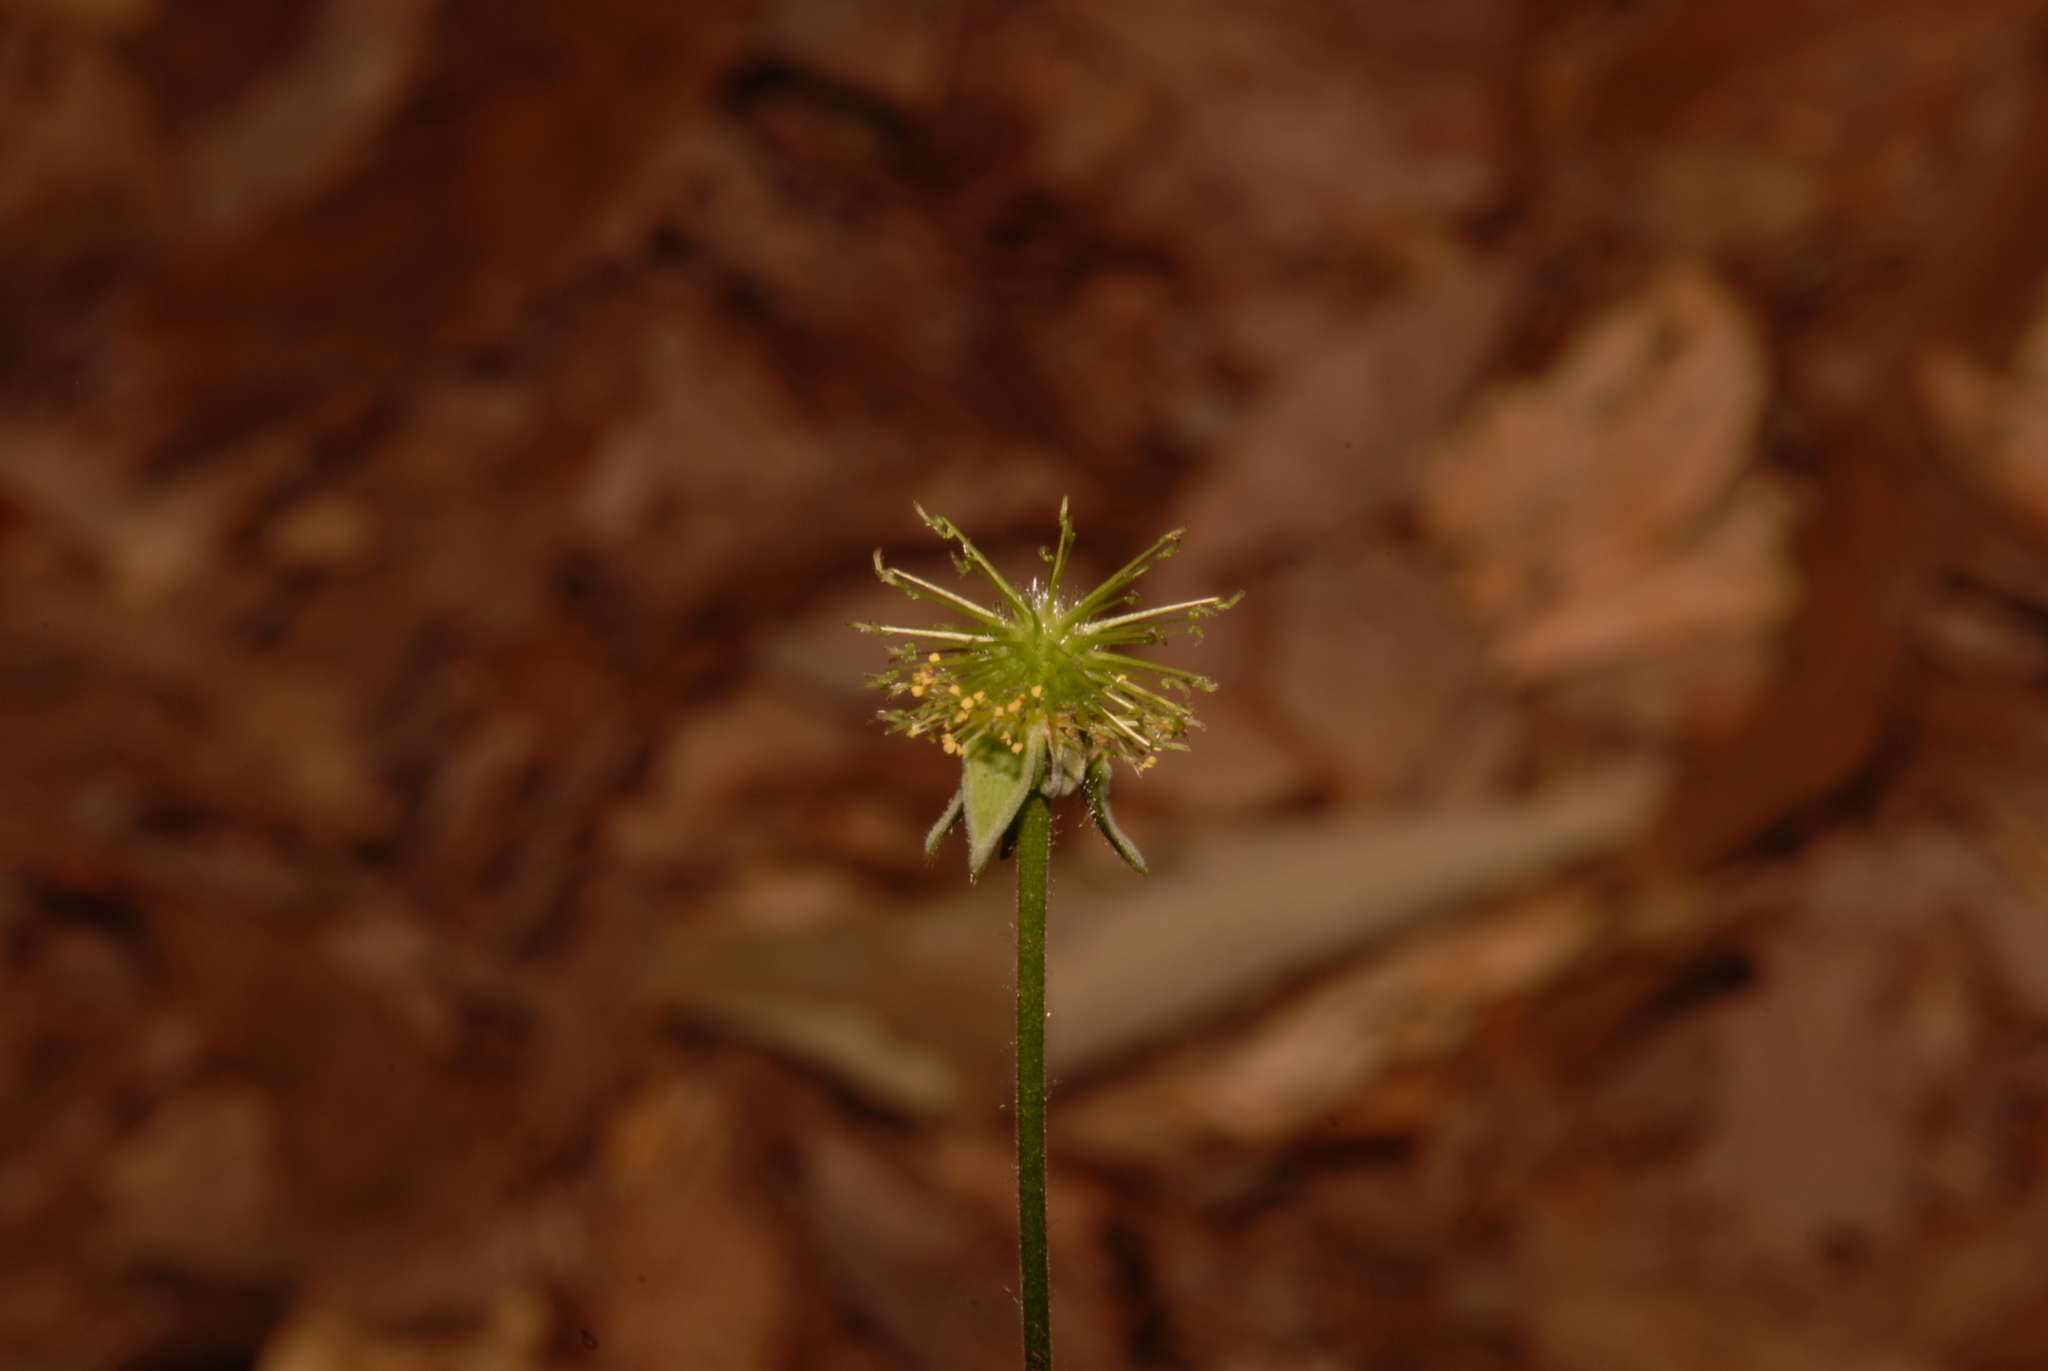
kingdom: Plantae
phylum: Tracheophyta
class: Magnoliopsida
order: Rosales
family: Rosaceae
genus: Geum
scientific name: Geum virginianum
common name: Cream avens
